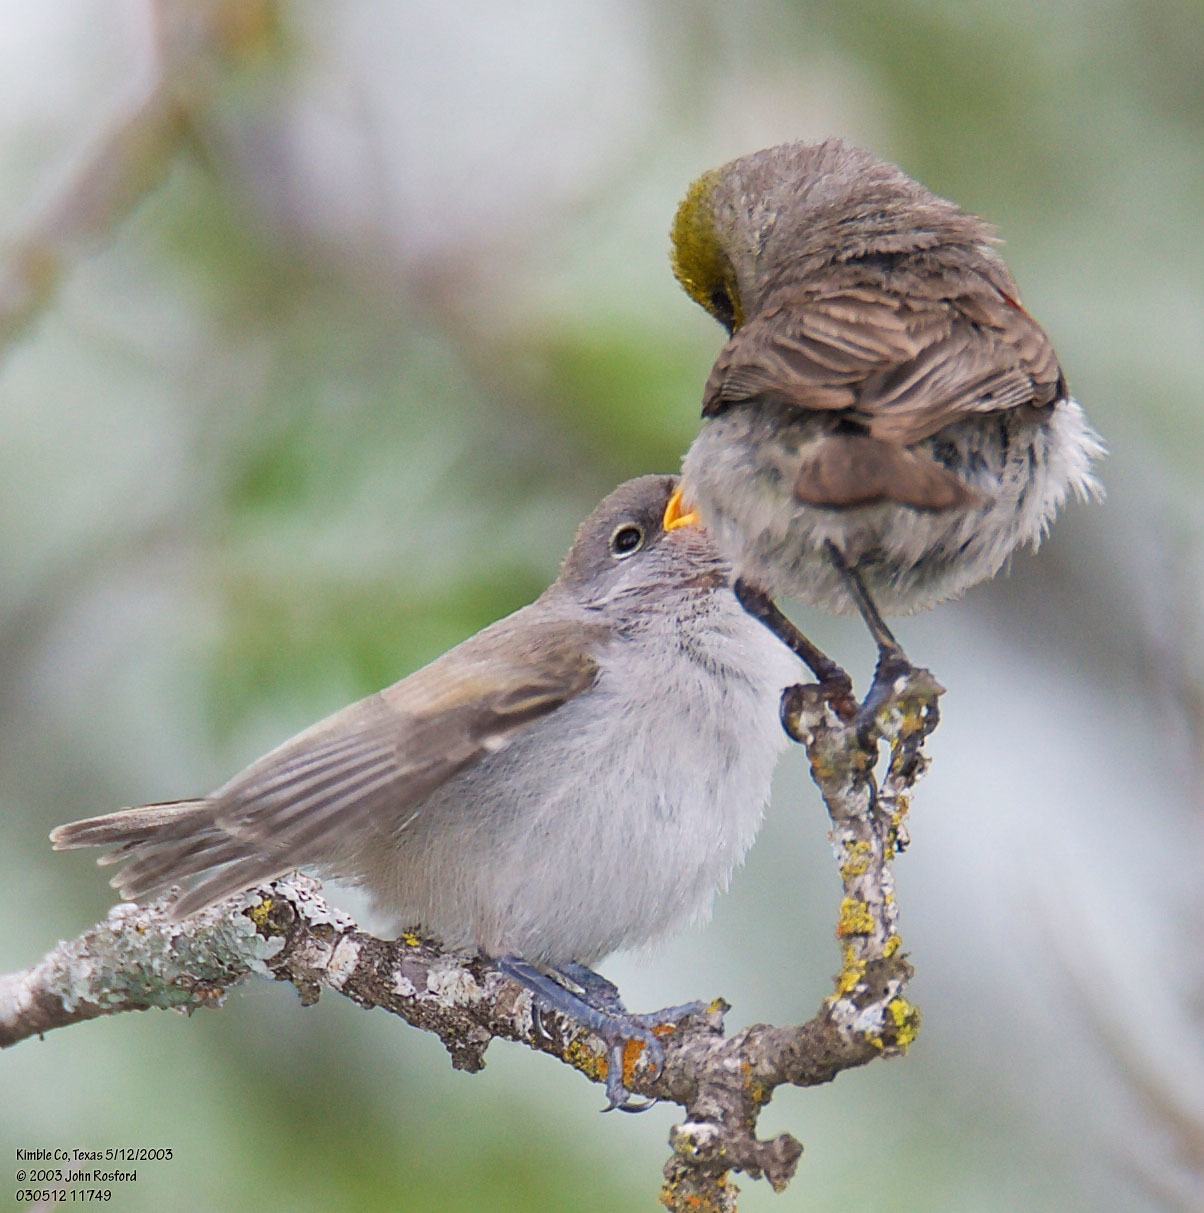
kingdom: Animalia
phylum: Chordata
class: Aves
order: Passeriformes
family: Remizidae
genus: Auriparus
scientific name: Auriparus flaviceps
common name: Verdin
